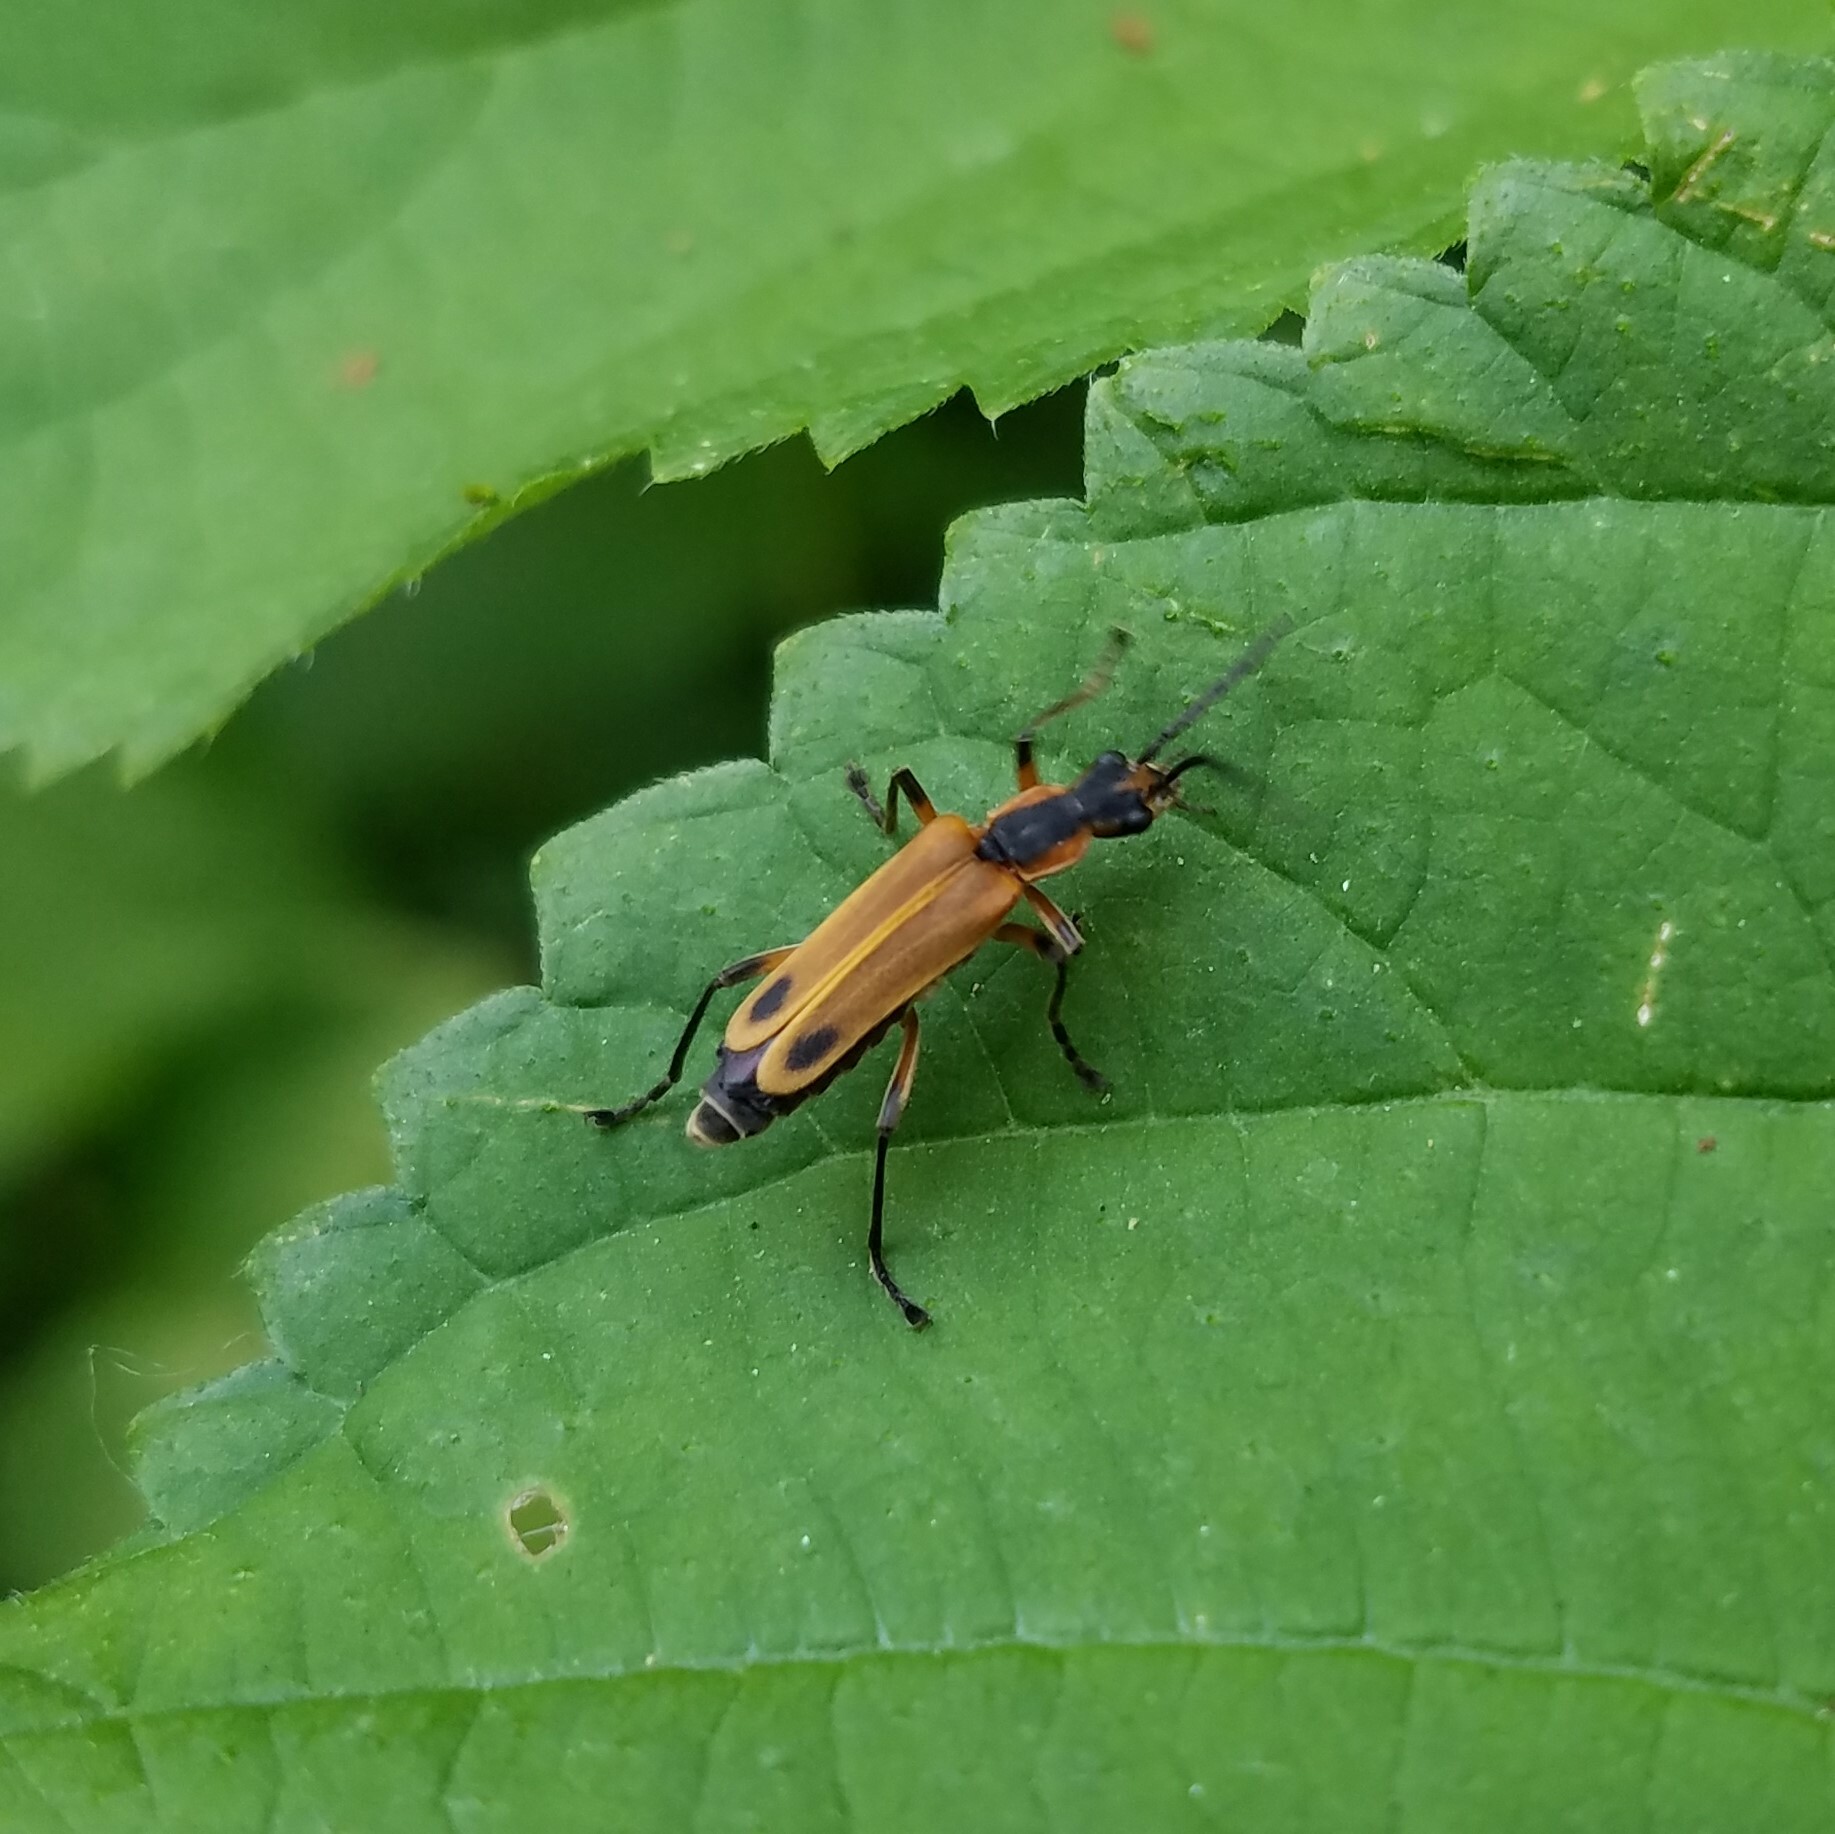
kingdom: Animalia
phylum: Arthropoda
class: Insecta
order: Coleoptera
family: Cantharidae
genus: Chauliognathus
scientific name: Chauliognathus marginatus
